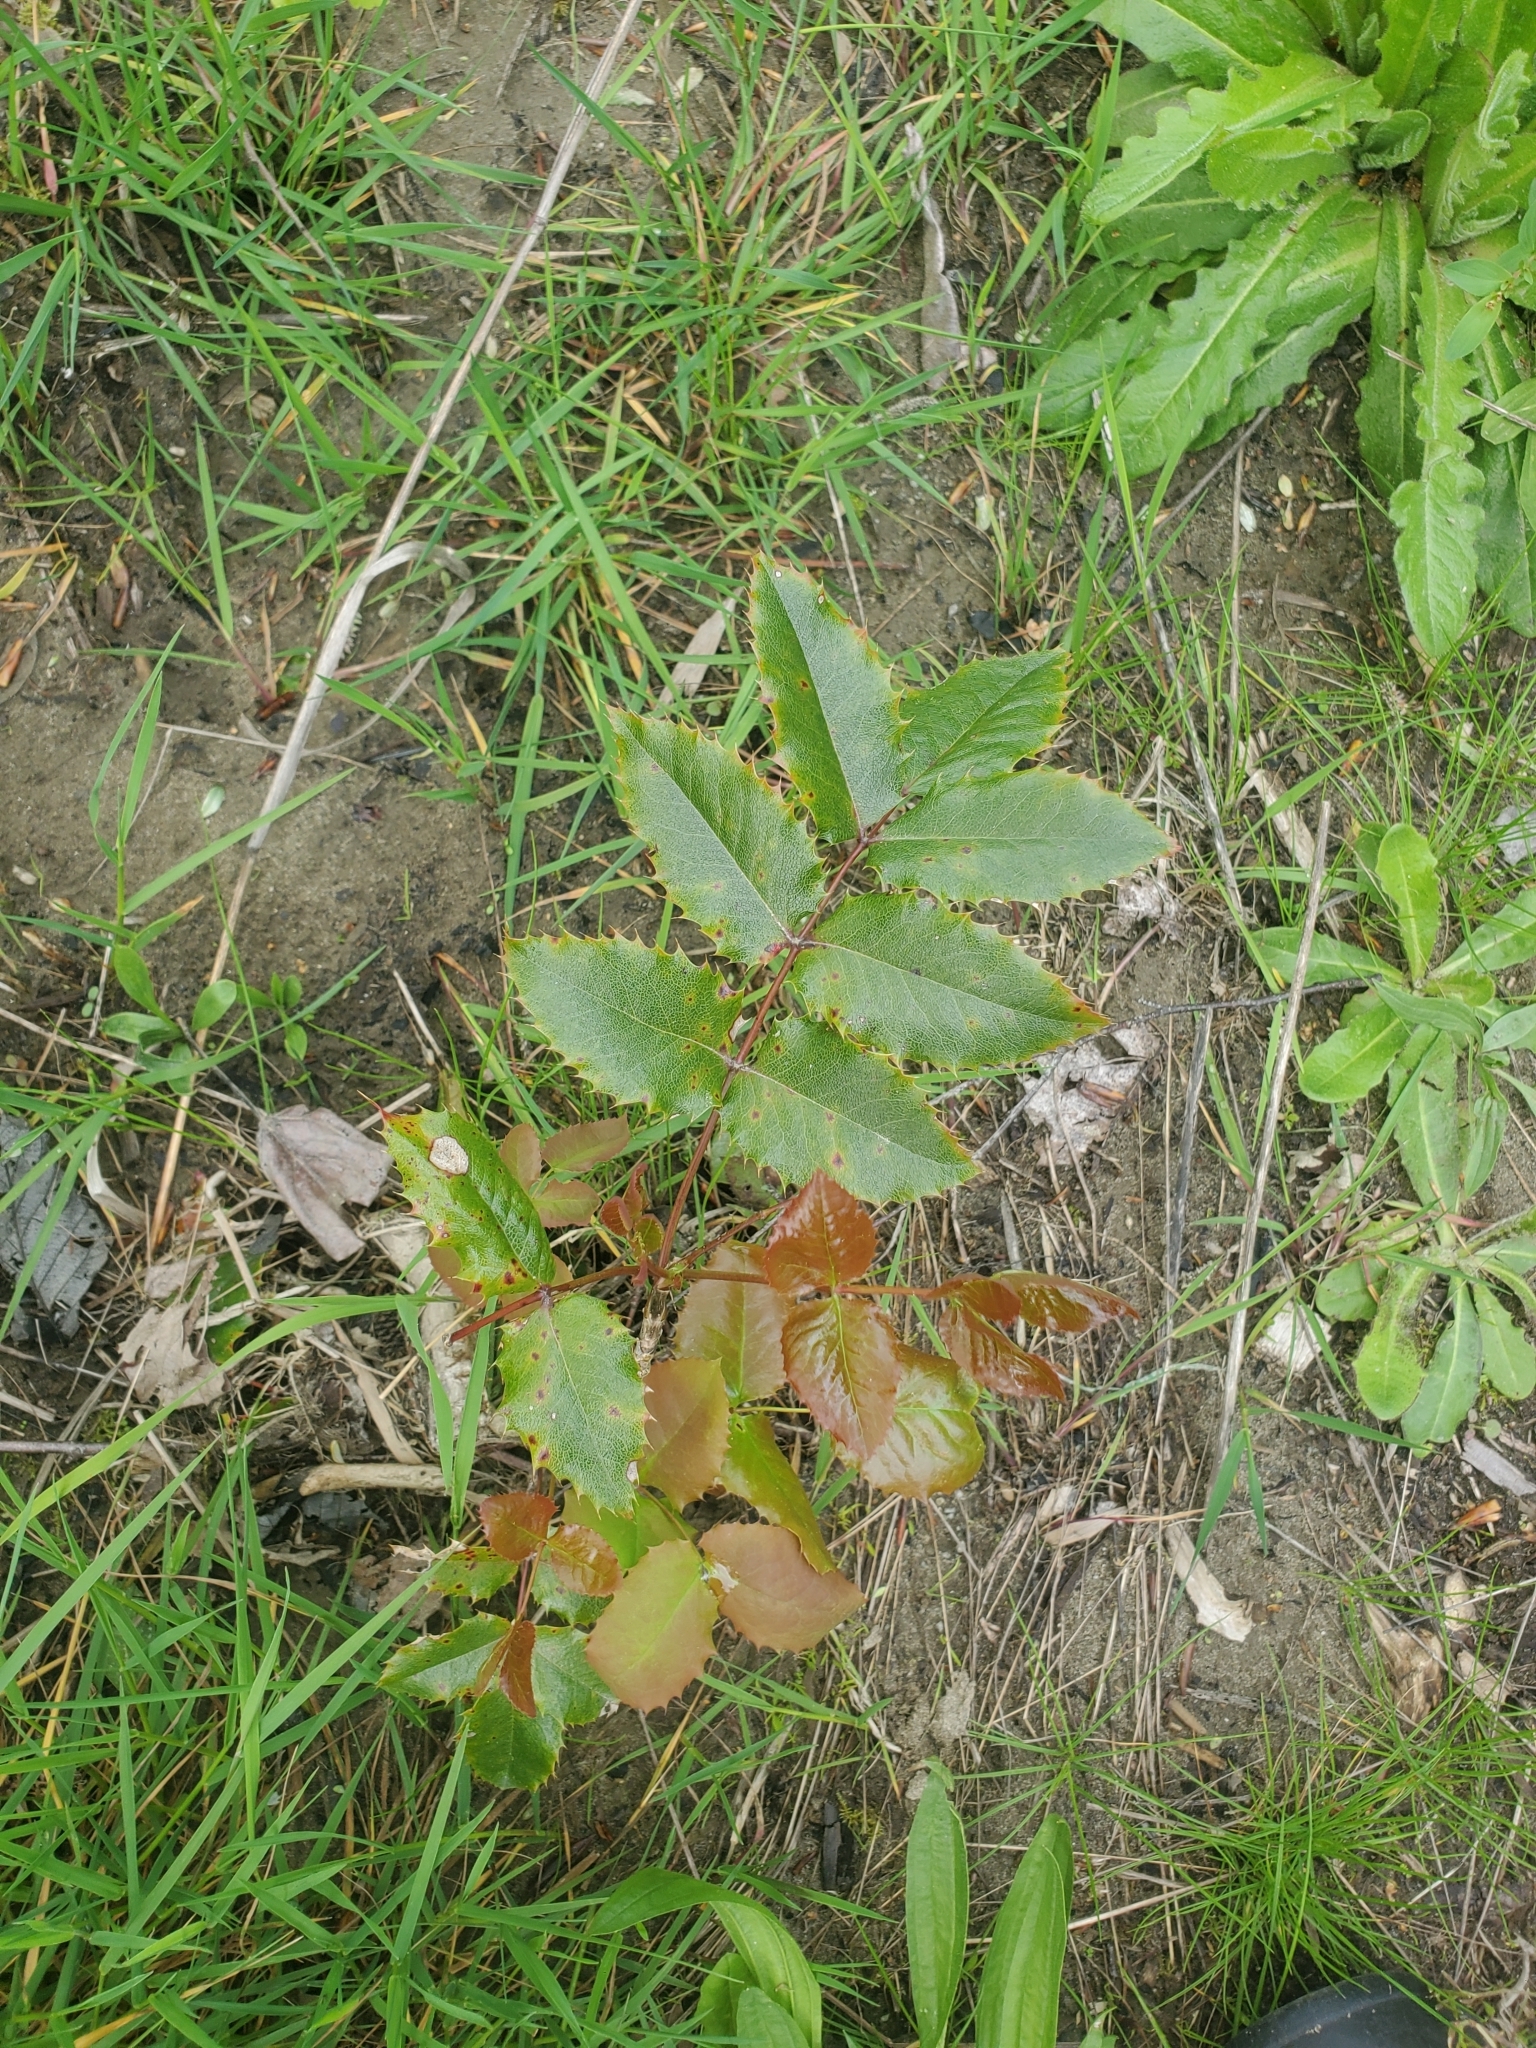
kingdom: Plantae
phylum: Tracheophyta
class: Magnoliopsida
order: Ranunculales
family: Berberidaceae
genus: Mahonia
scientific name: Mahonia aquifolium
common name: Oregon-grape
